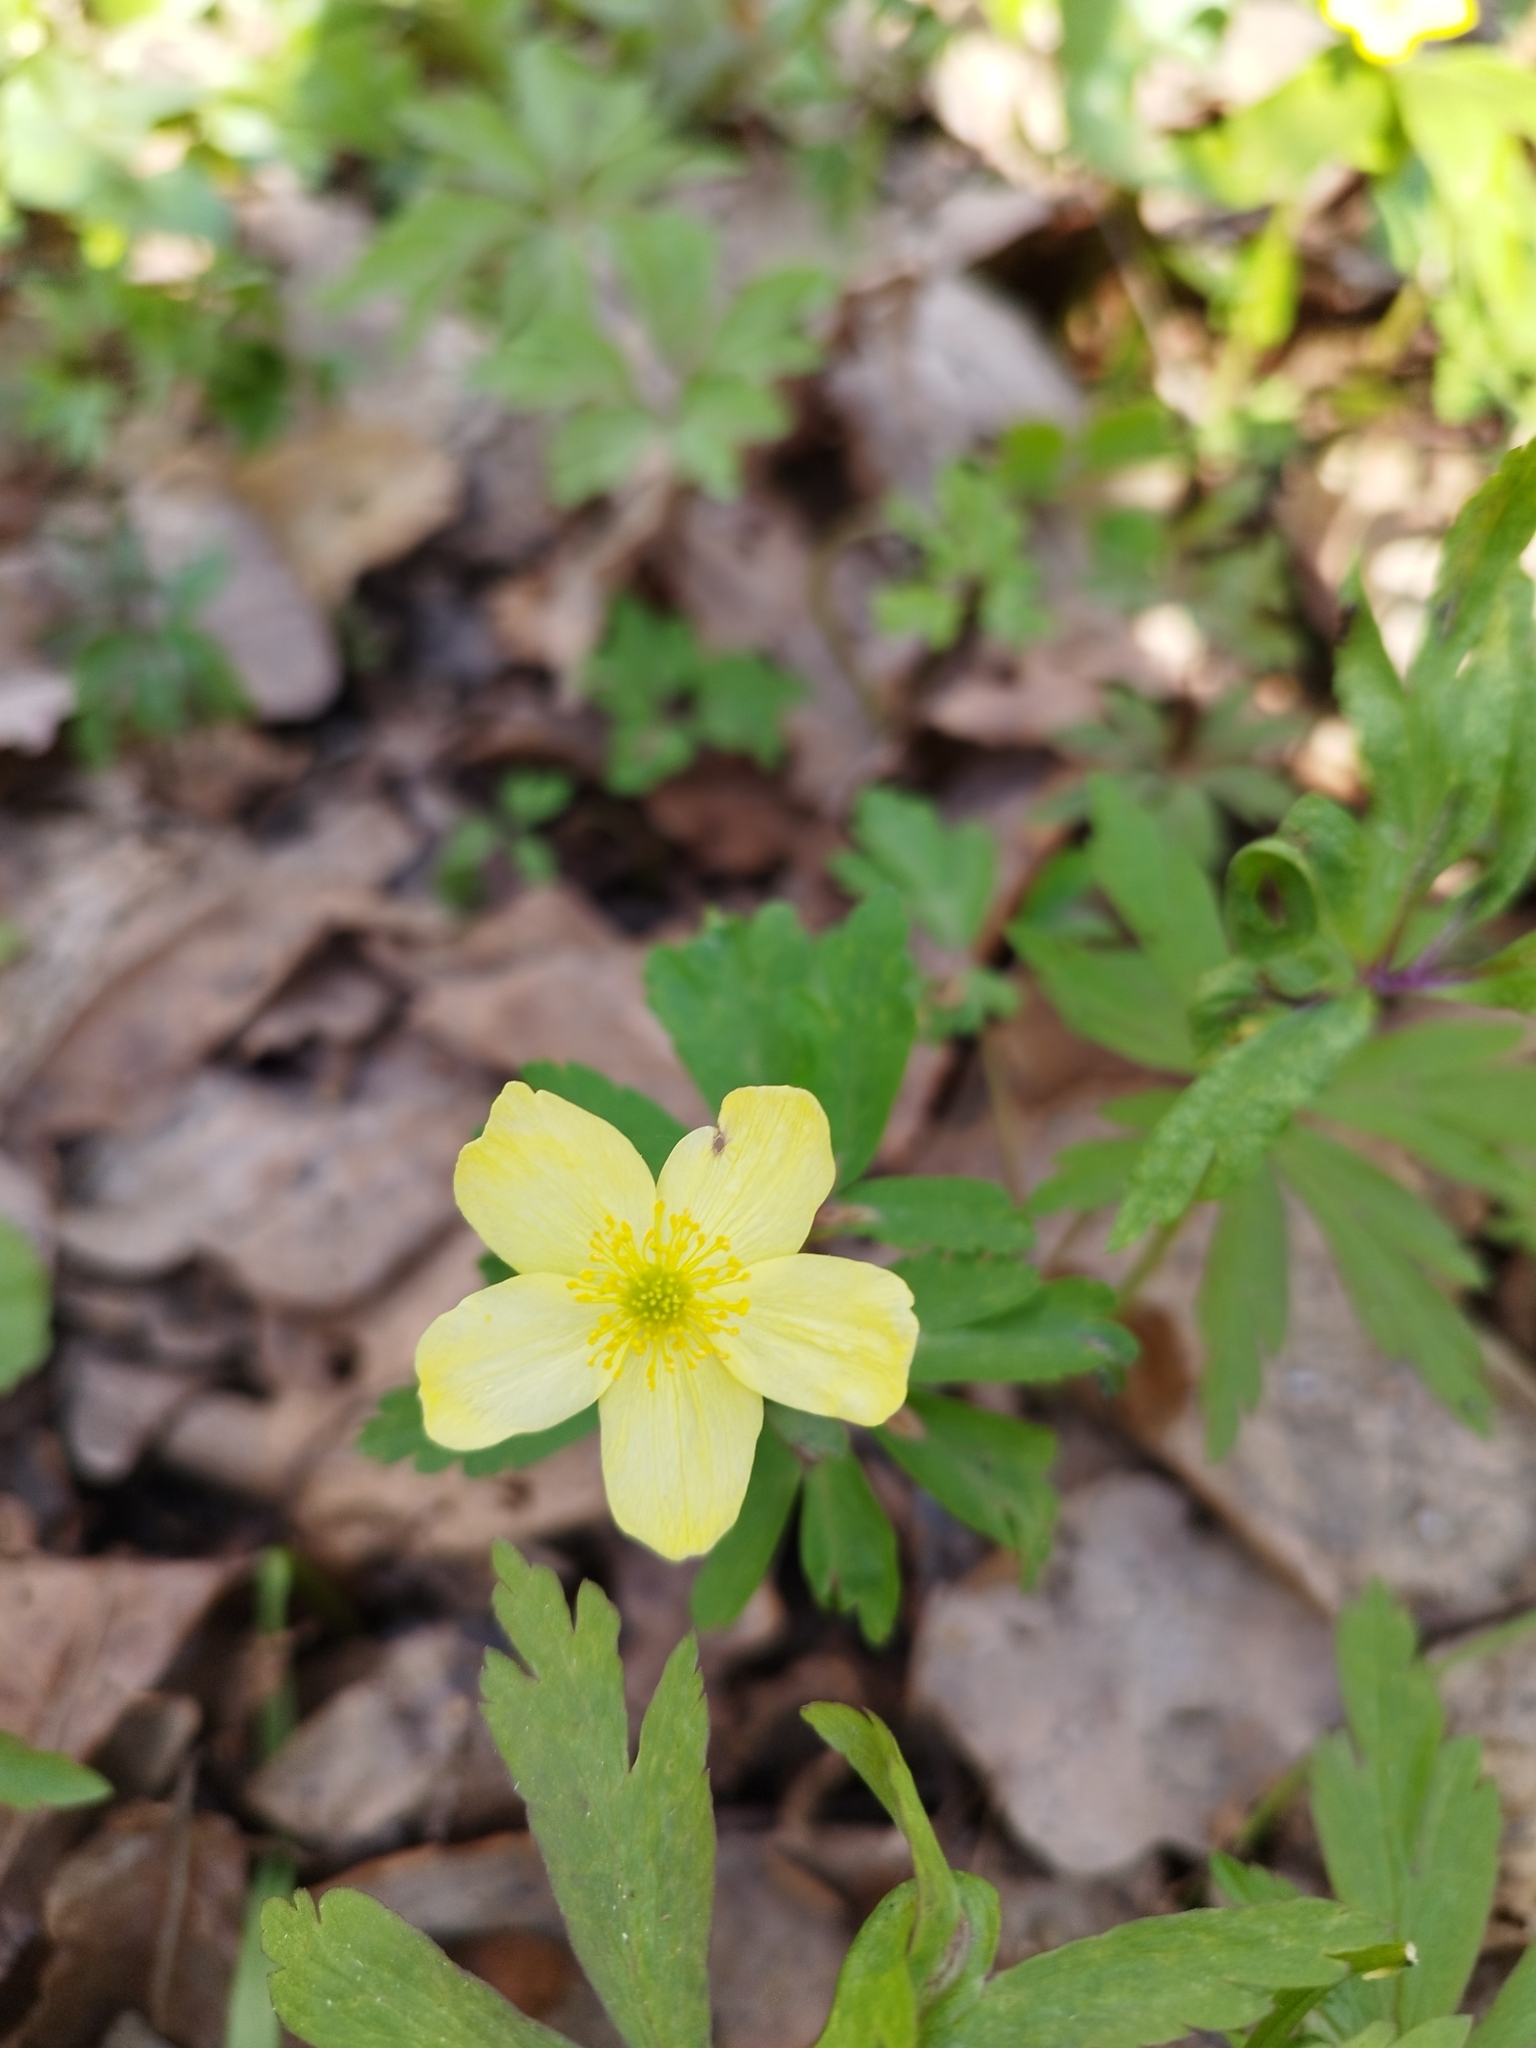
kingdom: Plantae
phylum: Tracheophyta
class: Magnoliopsida
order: Ranunculales
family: Ranunculaceae
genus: Anemone
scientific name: Anemone korzchinskyi
